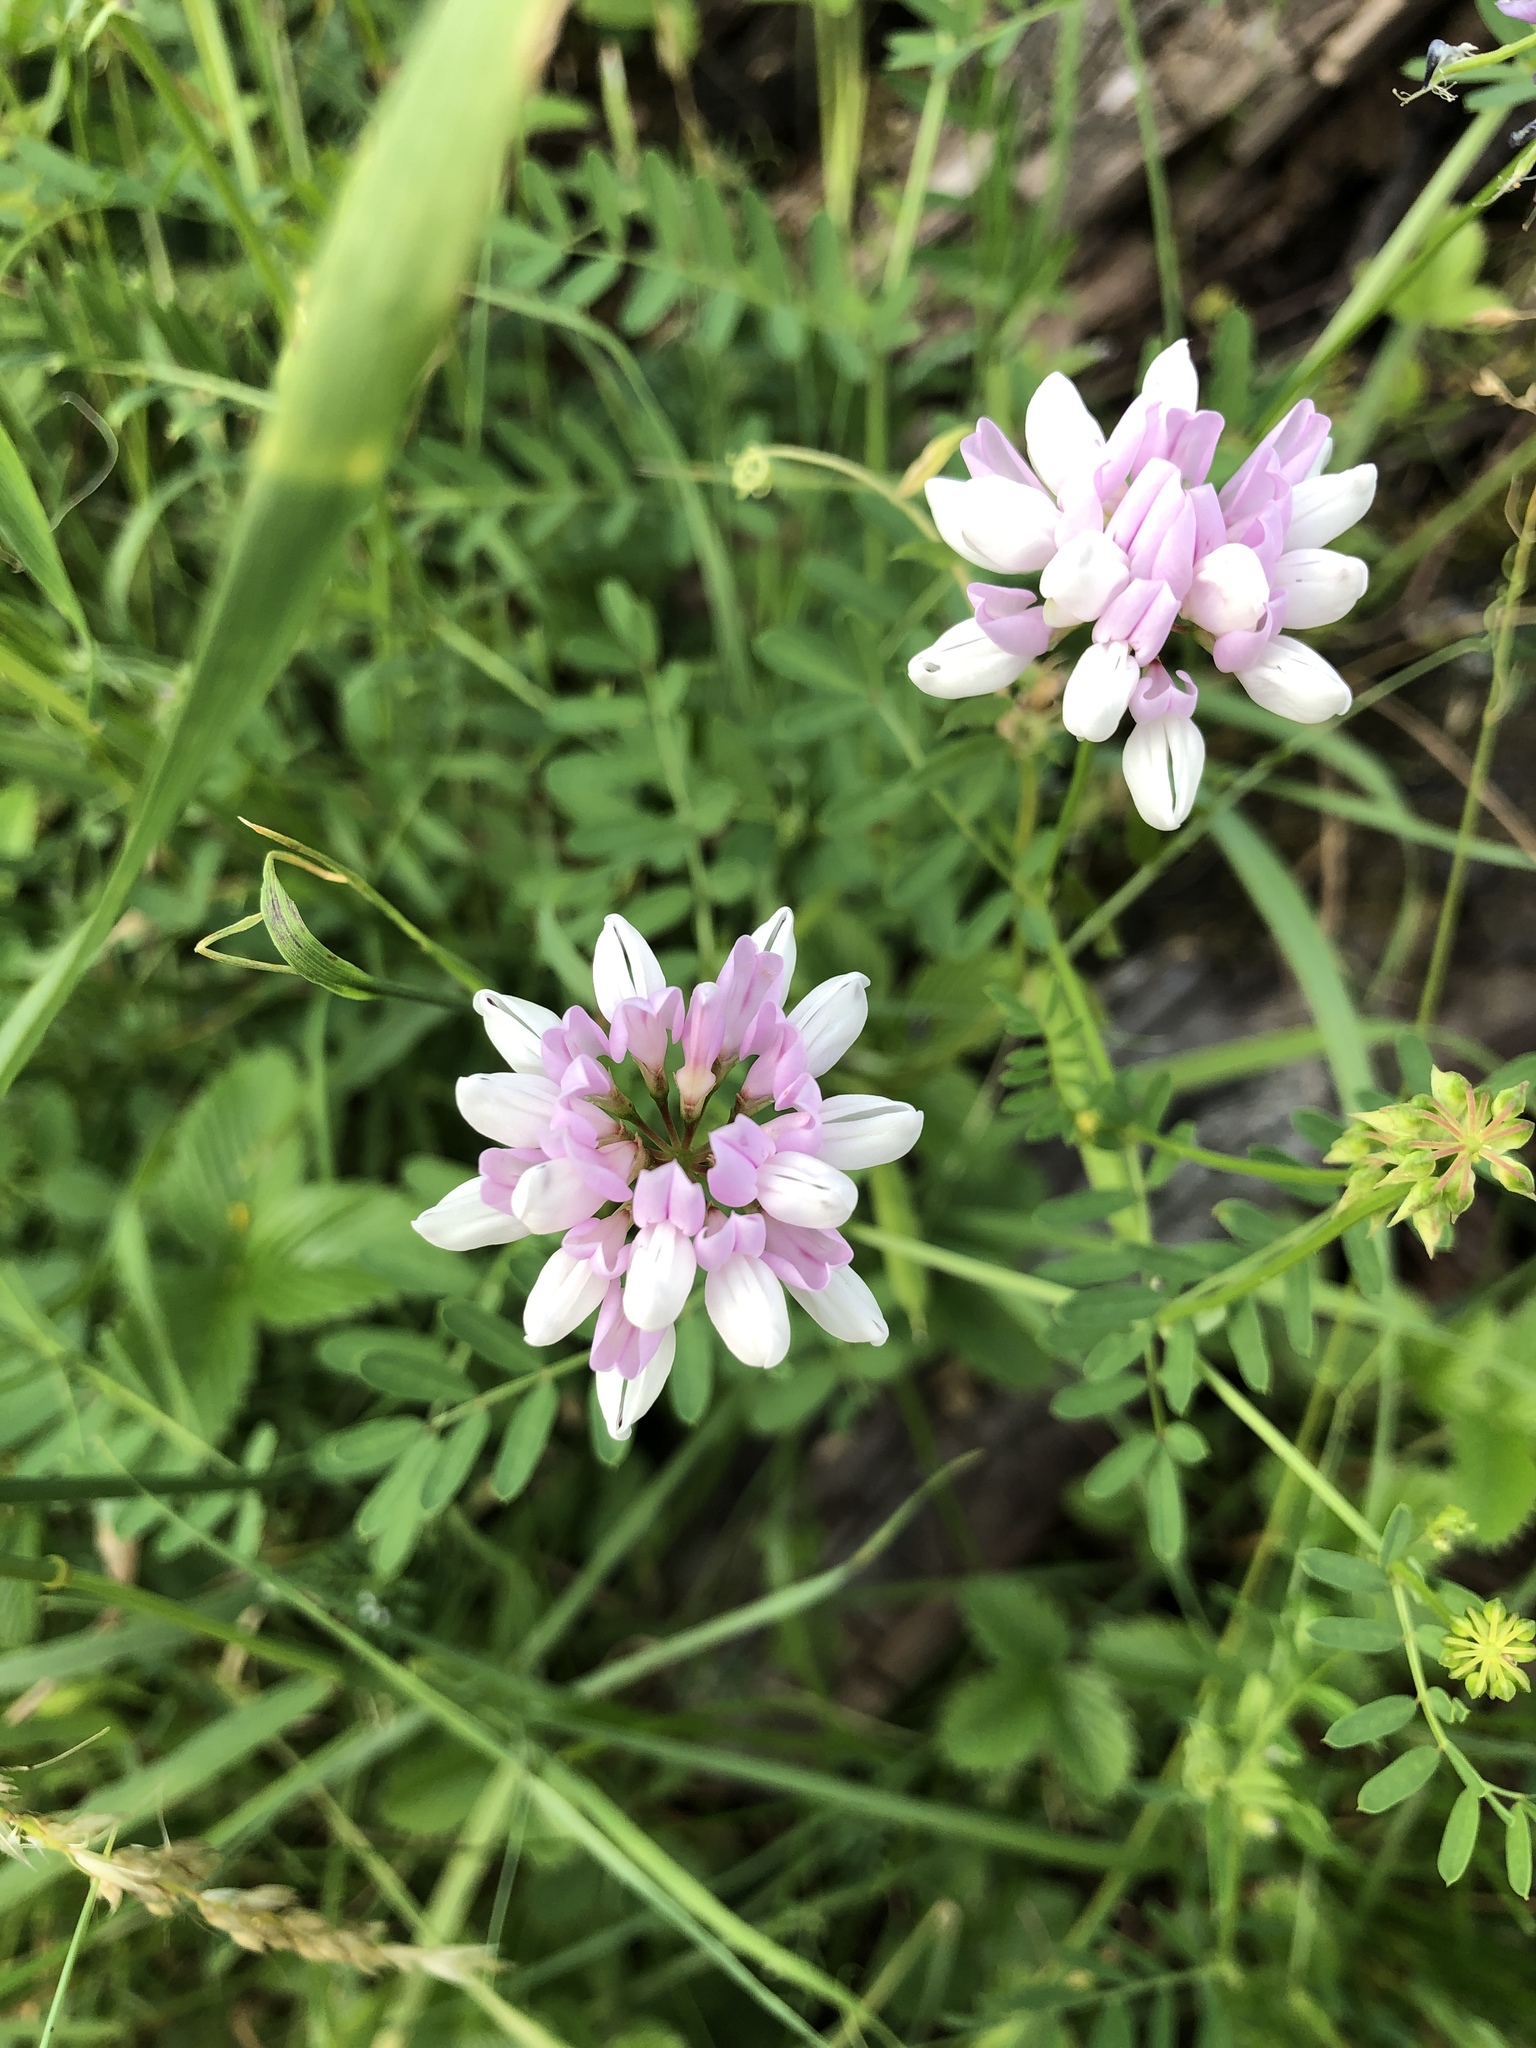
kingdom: Plantae
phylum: Tracheophyta
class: Magnoliopsida
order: Fabales
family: Fabaceae
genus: Coronilla
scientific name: Coronilla varia
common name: Crownvetch
